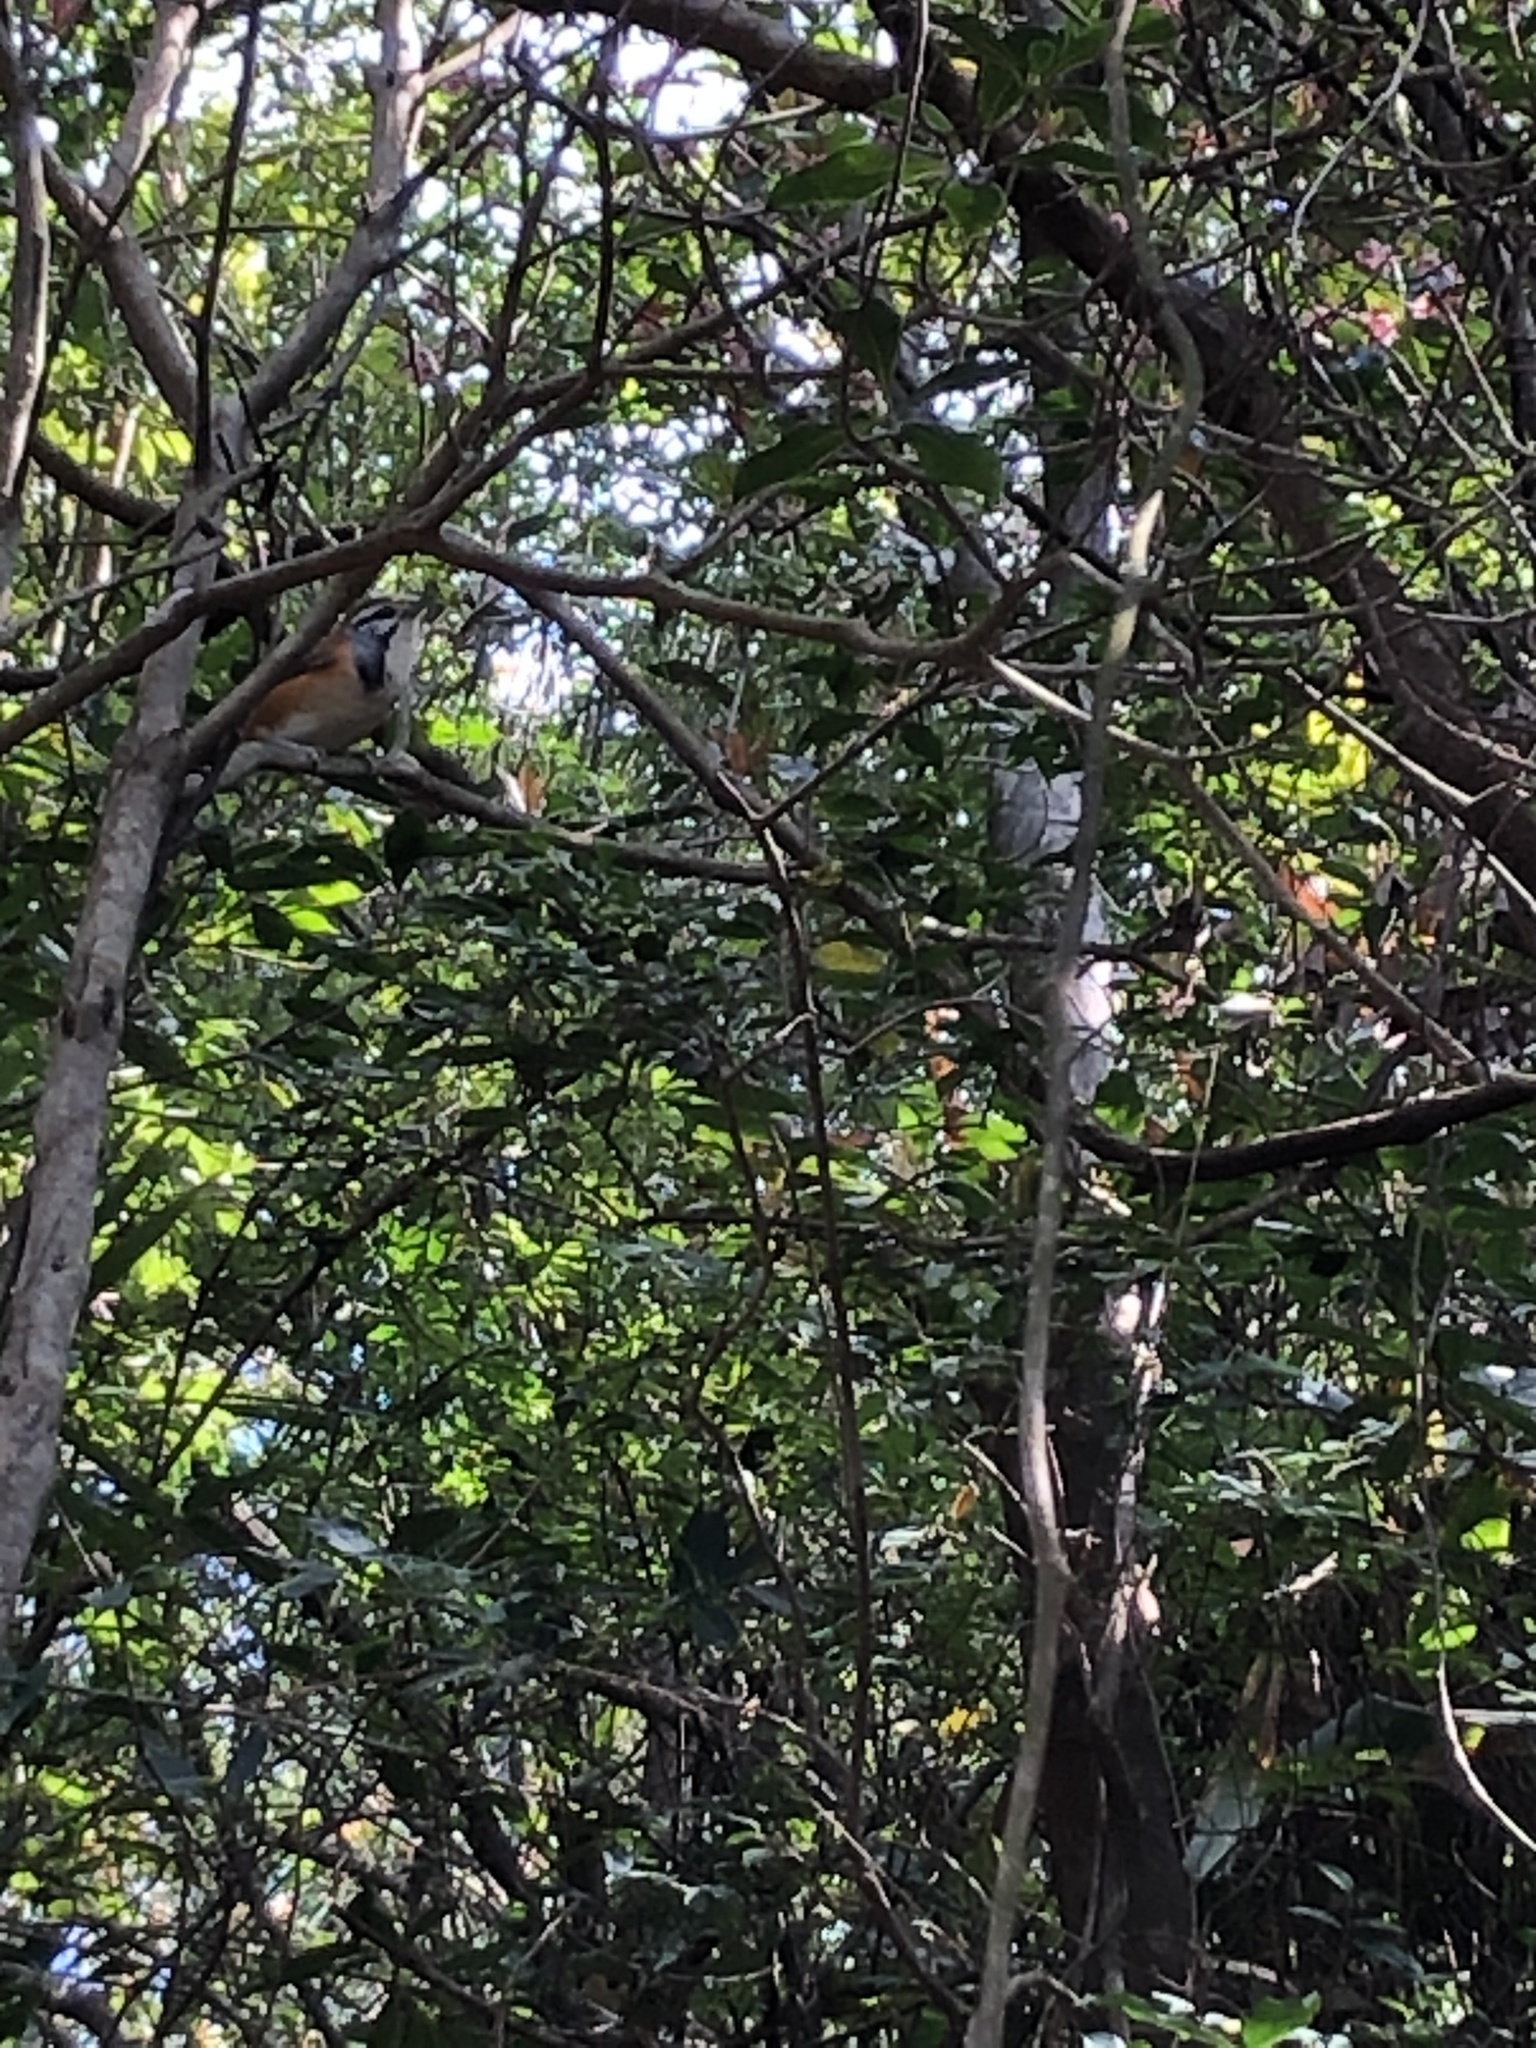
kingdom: Animalia
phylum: Chordata
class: Aves
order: Passeriformes
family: Leiothrichidae
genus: Garrulax
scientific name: Garrulax pectoralis
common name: Greater necklaced laughingthrush
